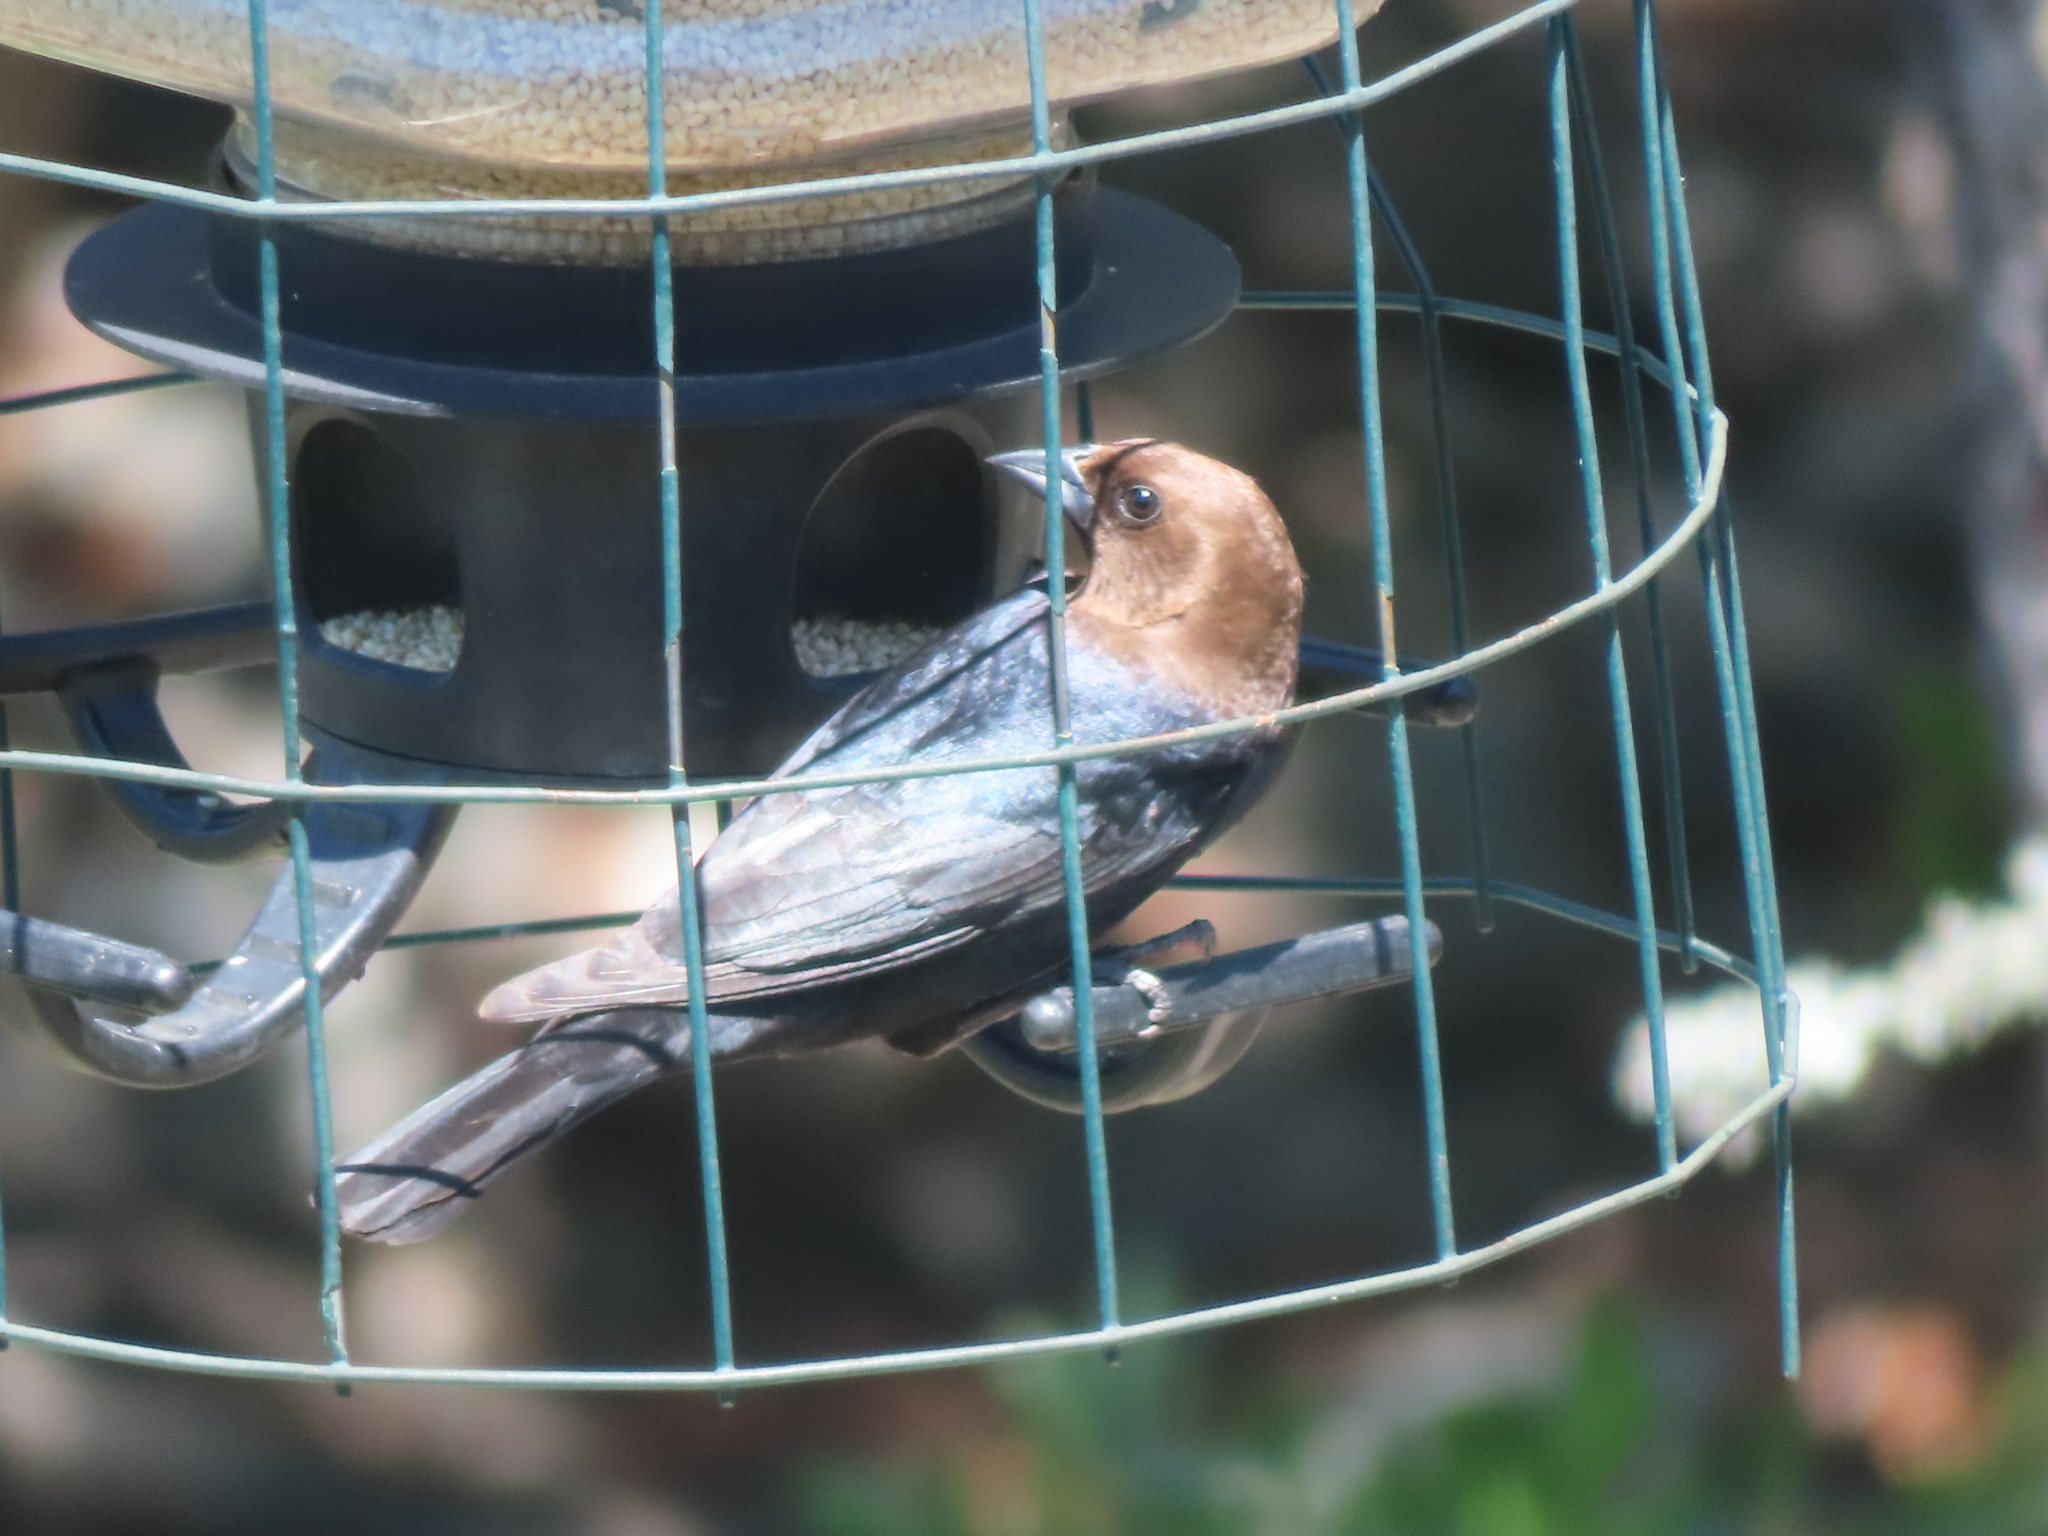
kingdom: Animalia
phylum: Chordata
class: Aves
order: Passeriformes
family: Icteridae
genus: Molothrus
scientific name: Molothrus ater
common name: Brown-headed cowbird
